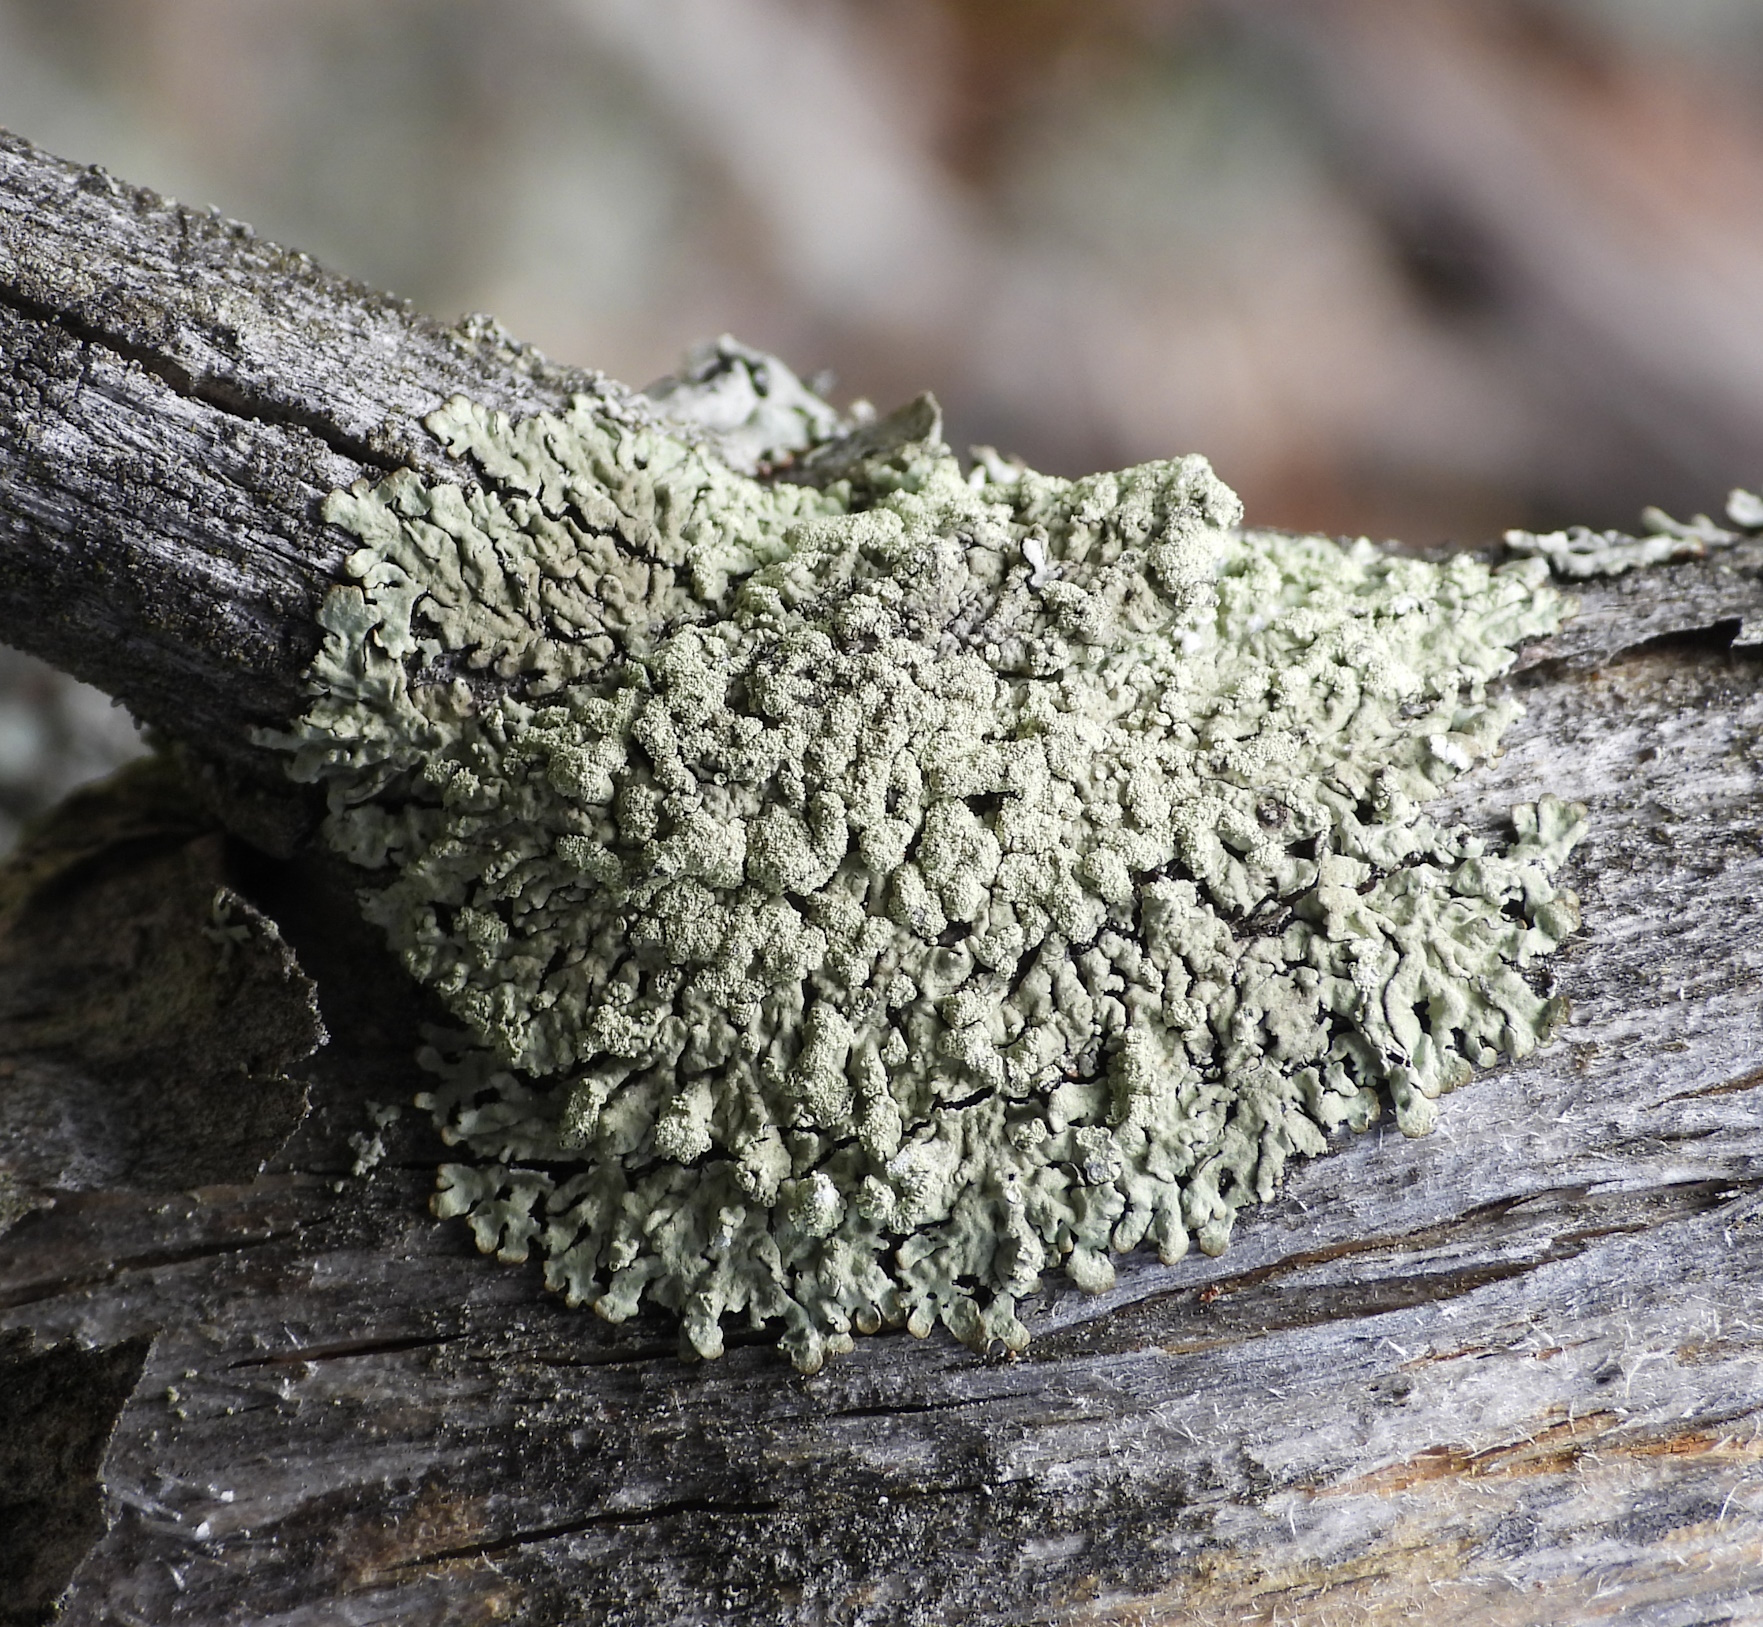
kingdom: Fungi
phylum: Ascomycota
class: Lecanoromycetes
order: Lecanorales
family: Parmeliaceae
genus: Parmeliopsis
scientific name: Parmeliopsis ambigua
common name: Green starburst lichen
